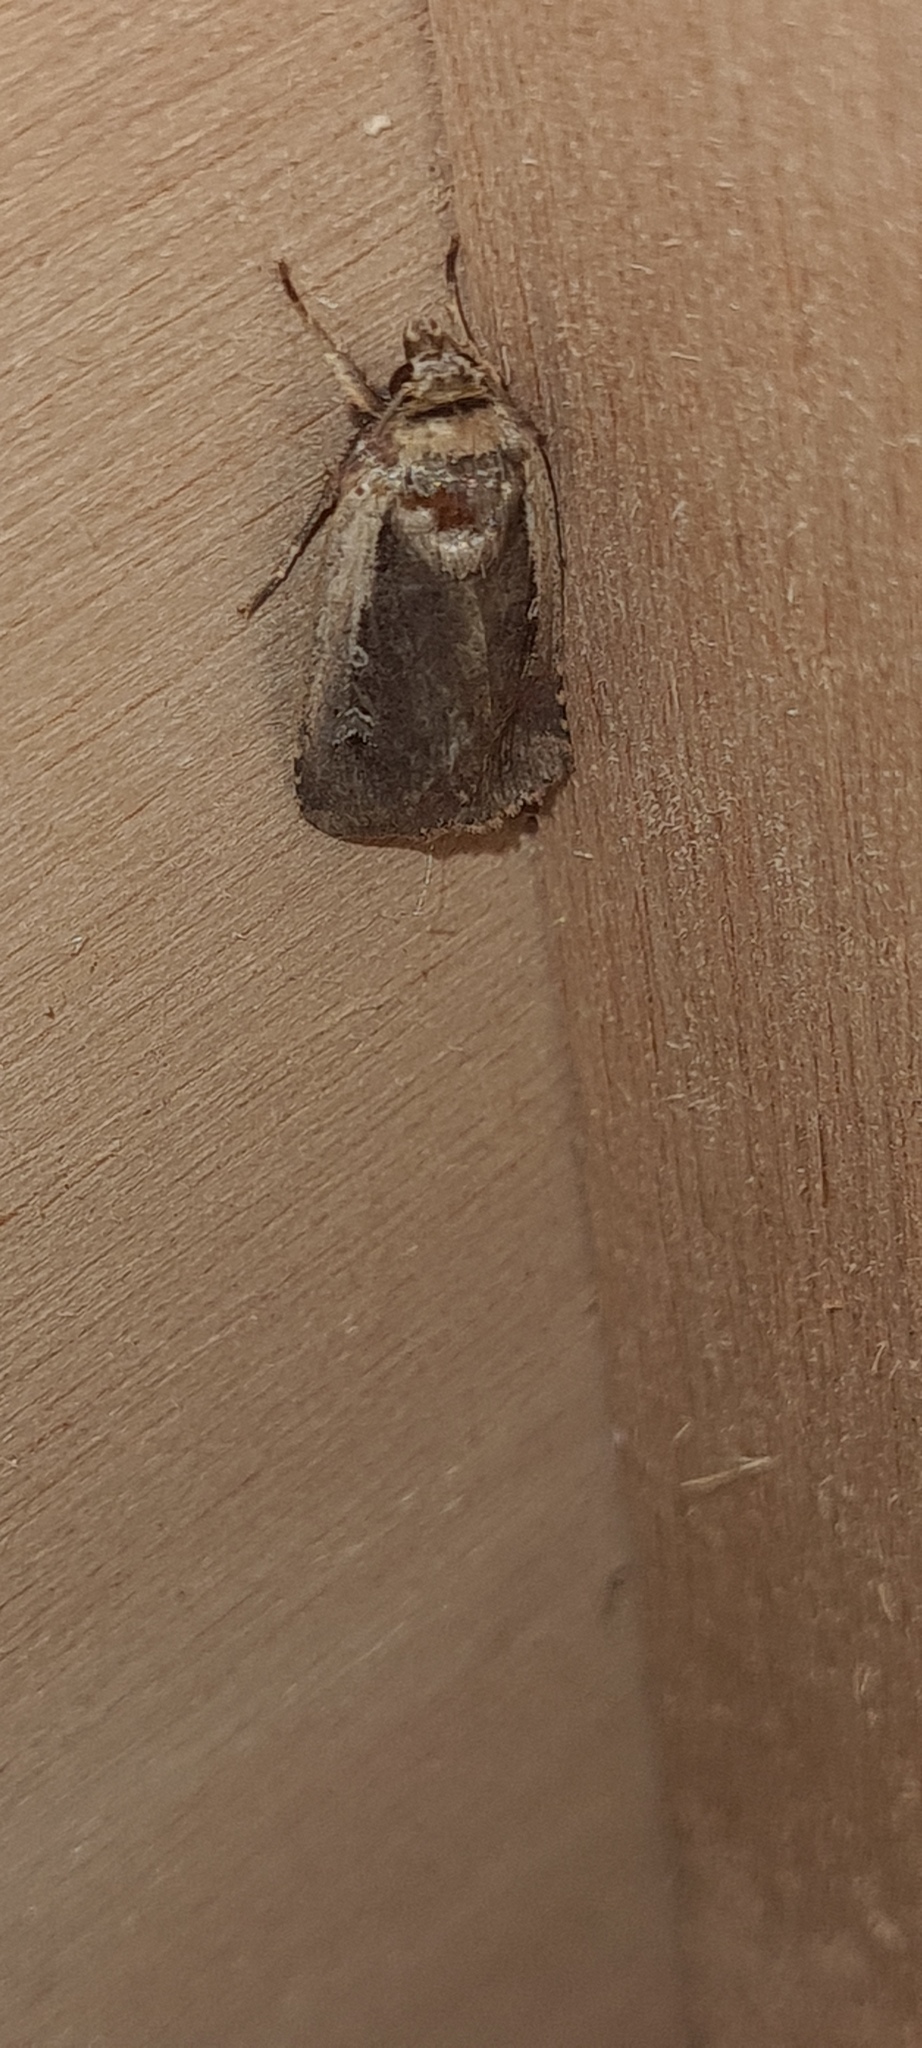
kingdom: Animalia
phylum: Arthropoda
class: Insecta
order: Lepidoptera
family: Noctuidae
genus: Ochropleura
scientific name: Ochropleura plecta
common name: Flame shoulder
